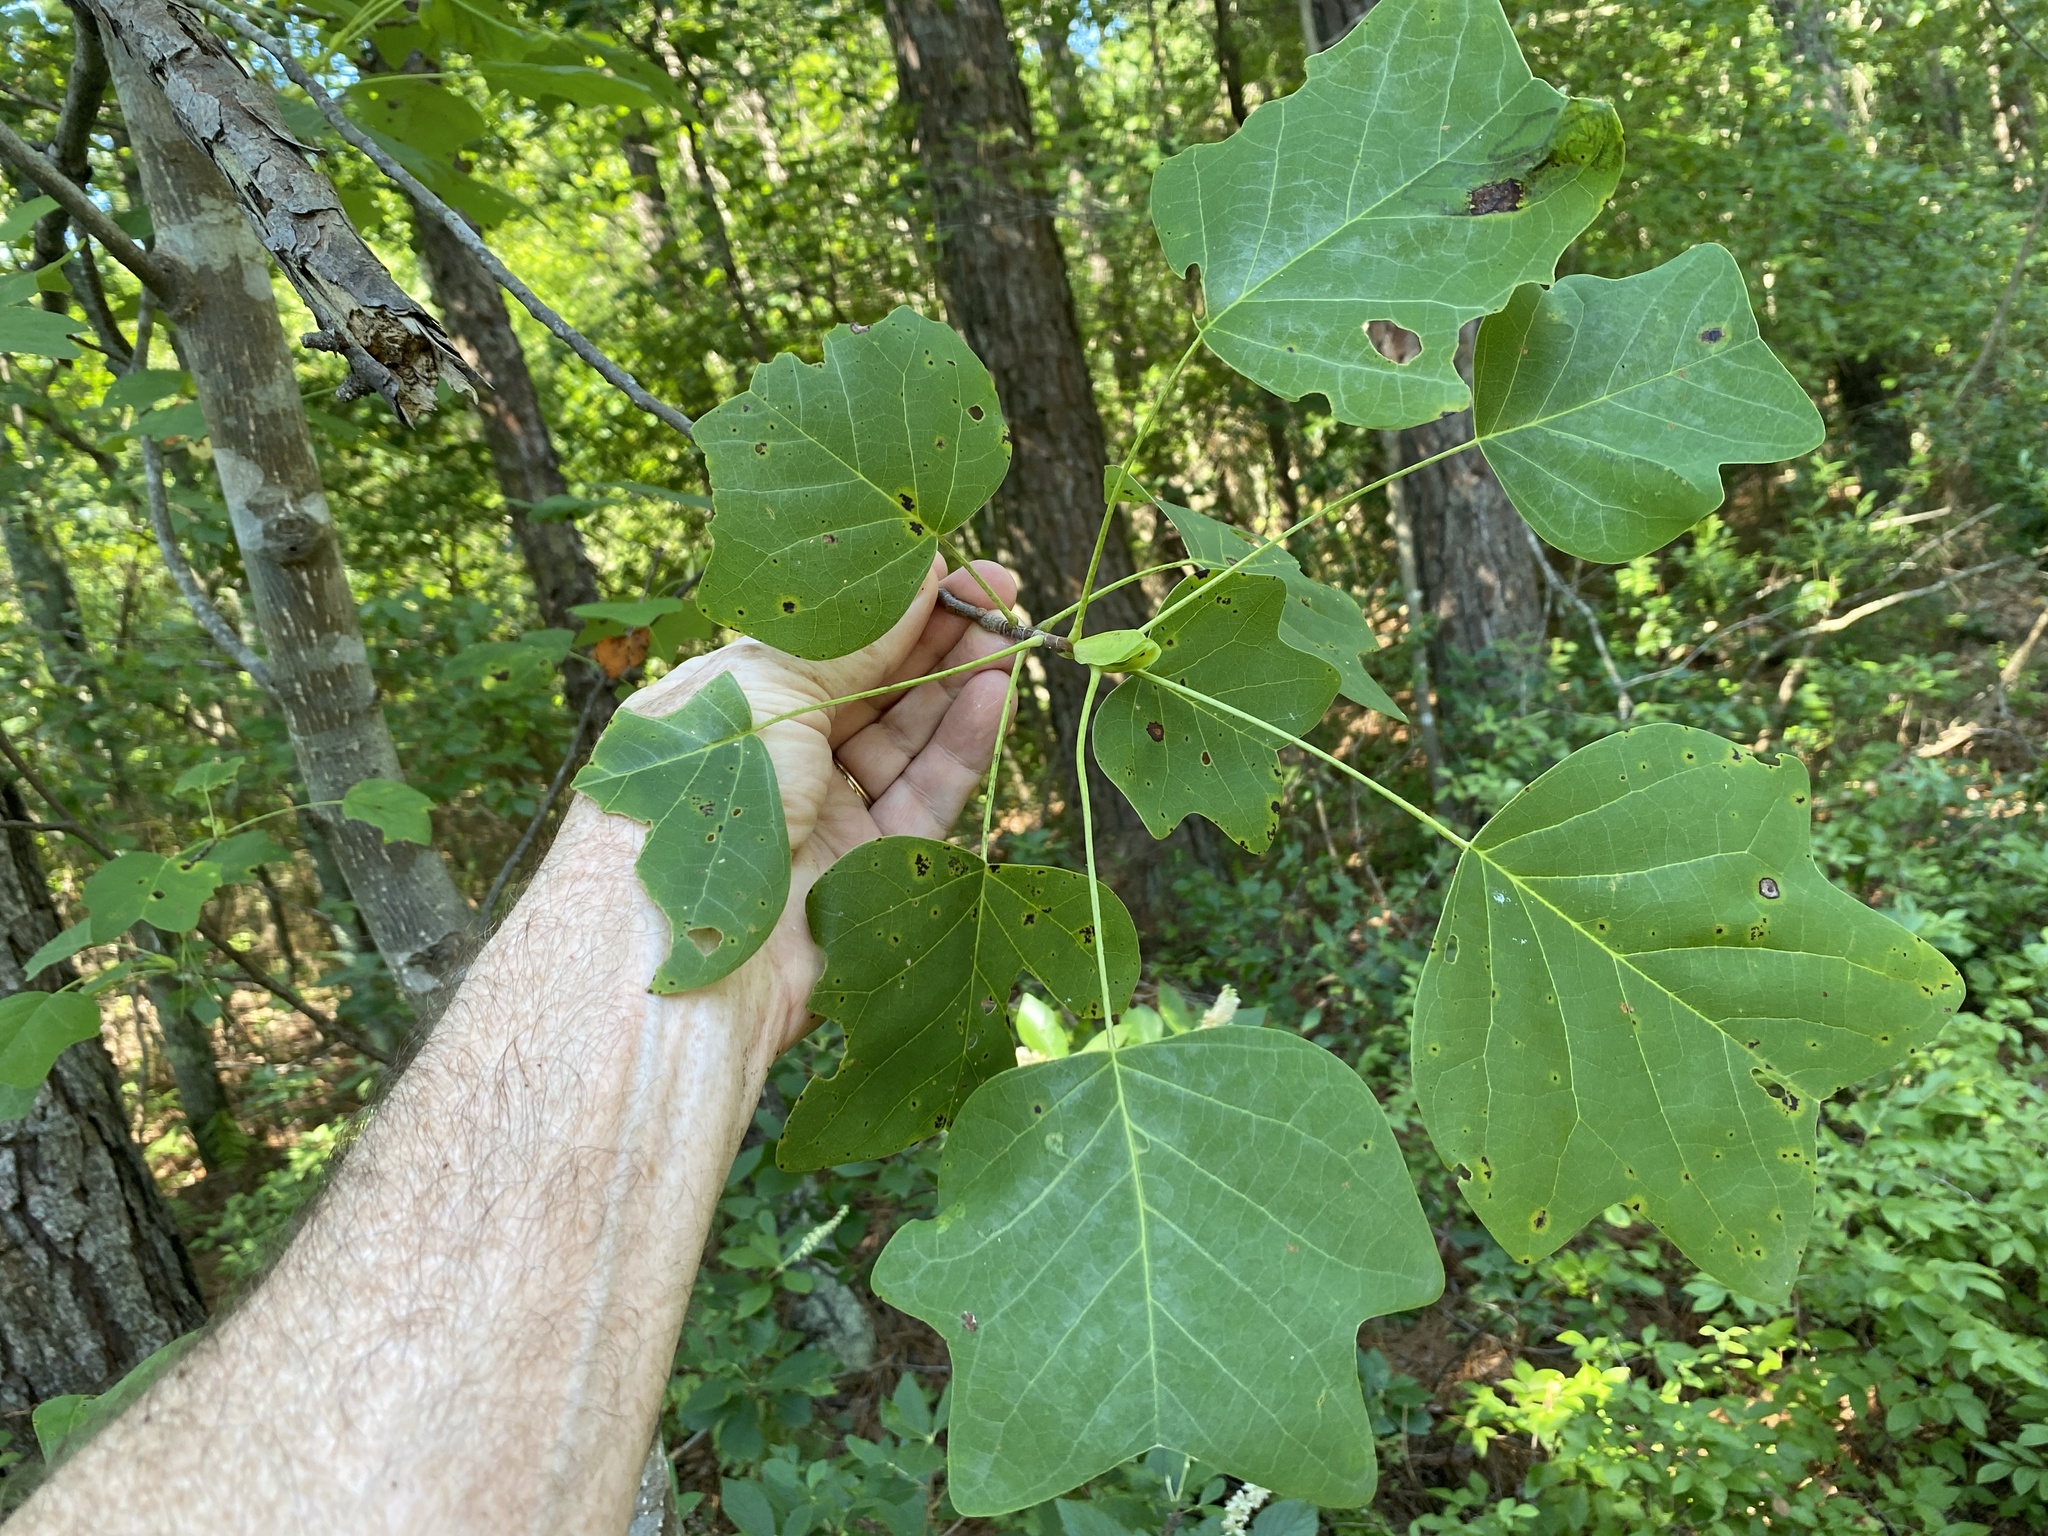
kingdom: Plantae
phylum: Tracheophyta
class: Magnoliopsida
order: Magnoliales
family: Magnoliaceae
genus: Liriodendron
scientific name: Liriodendron tulipifera
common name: Tulip tree
